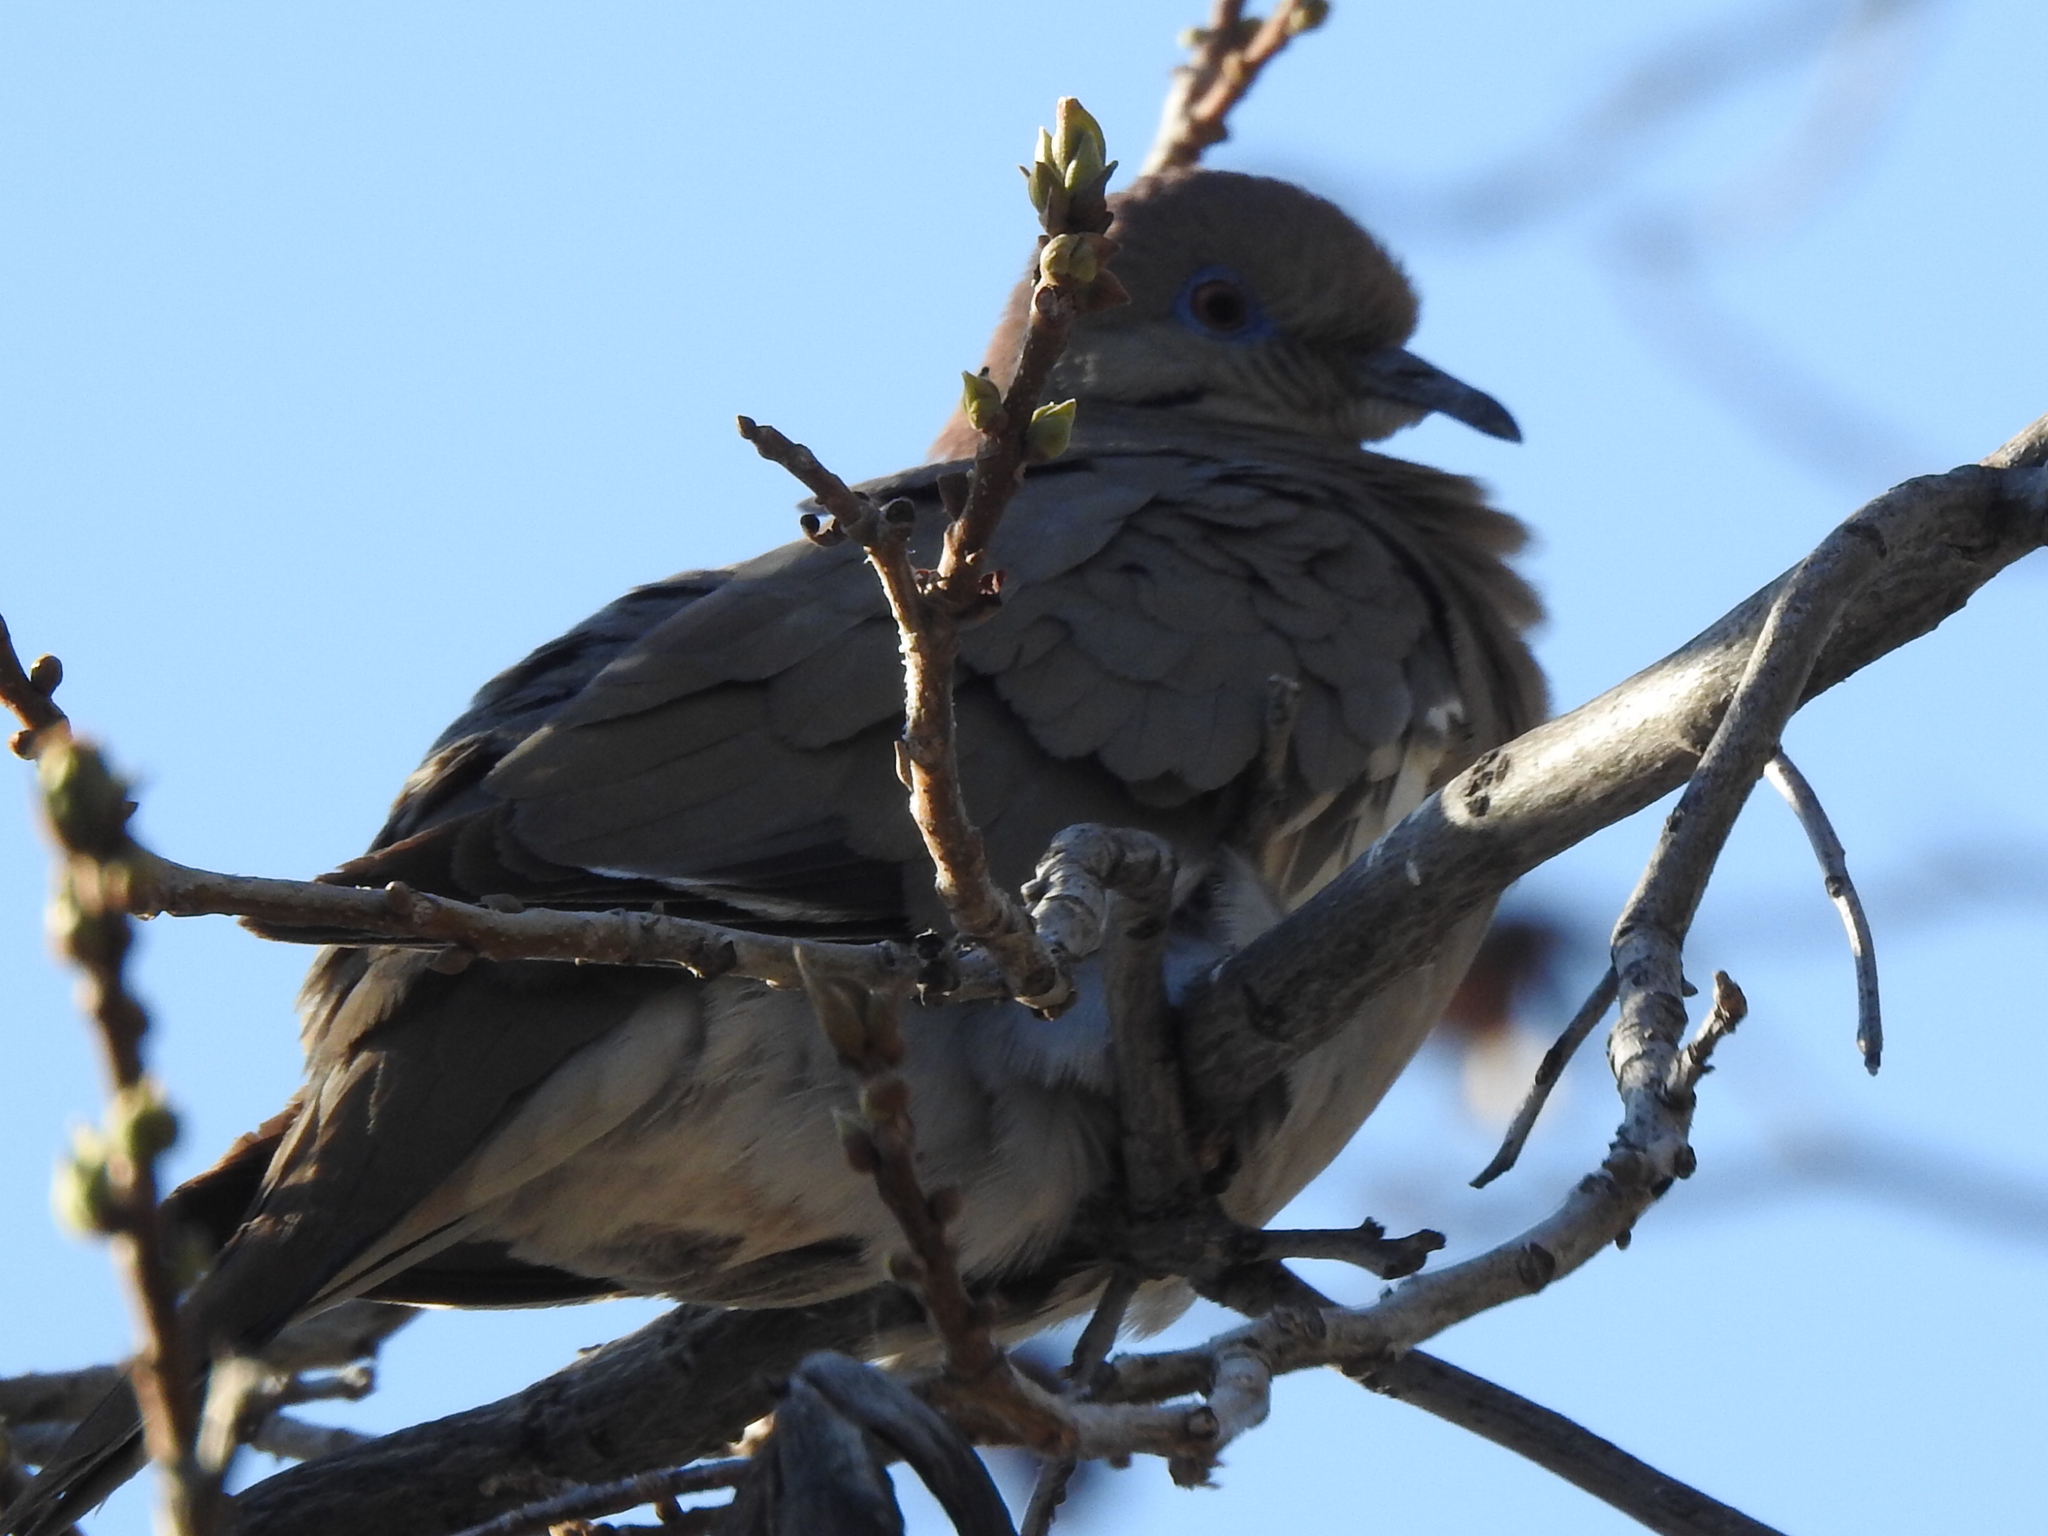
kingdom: Animalia
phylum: Chordata
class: Aves
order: Columbiformes
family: Columbidae
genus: Zenaida
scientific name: Zenaida asiatica
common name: White-winged dove
